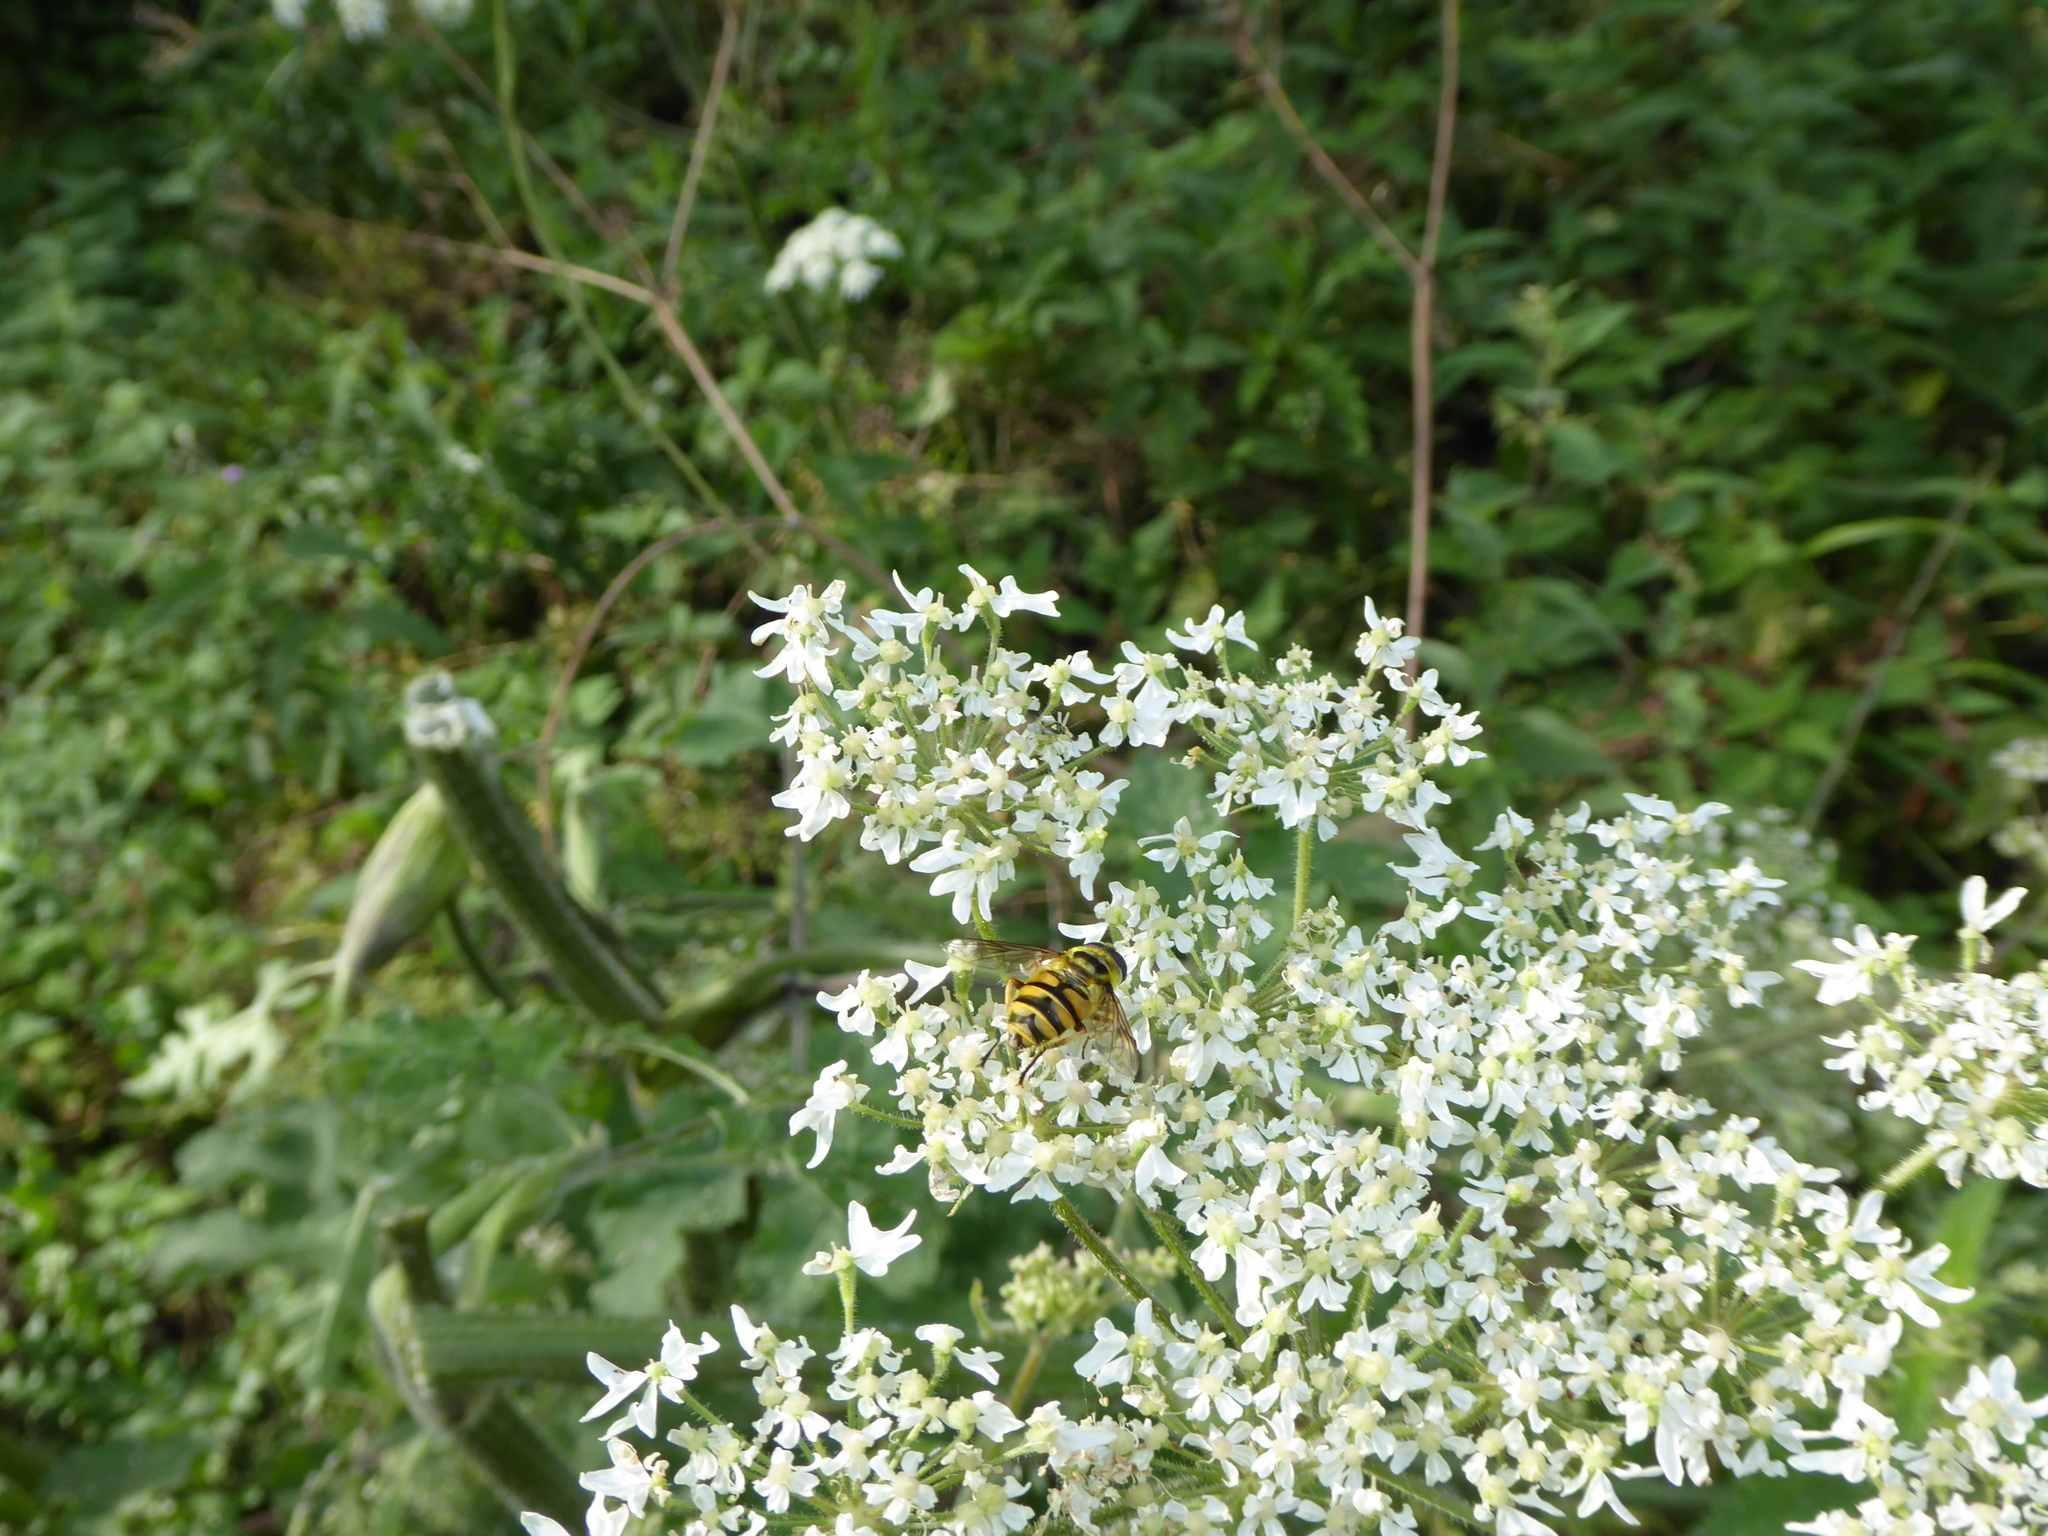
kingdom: Animalia
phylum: Arthropoda
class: Insecta
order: Diptera
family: Syrphidae
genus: Myathropa
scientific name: Myathropa florea
